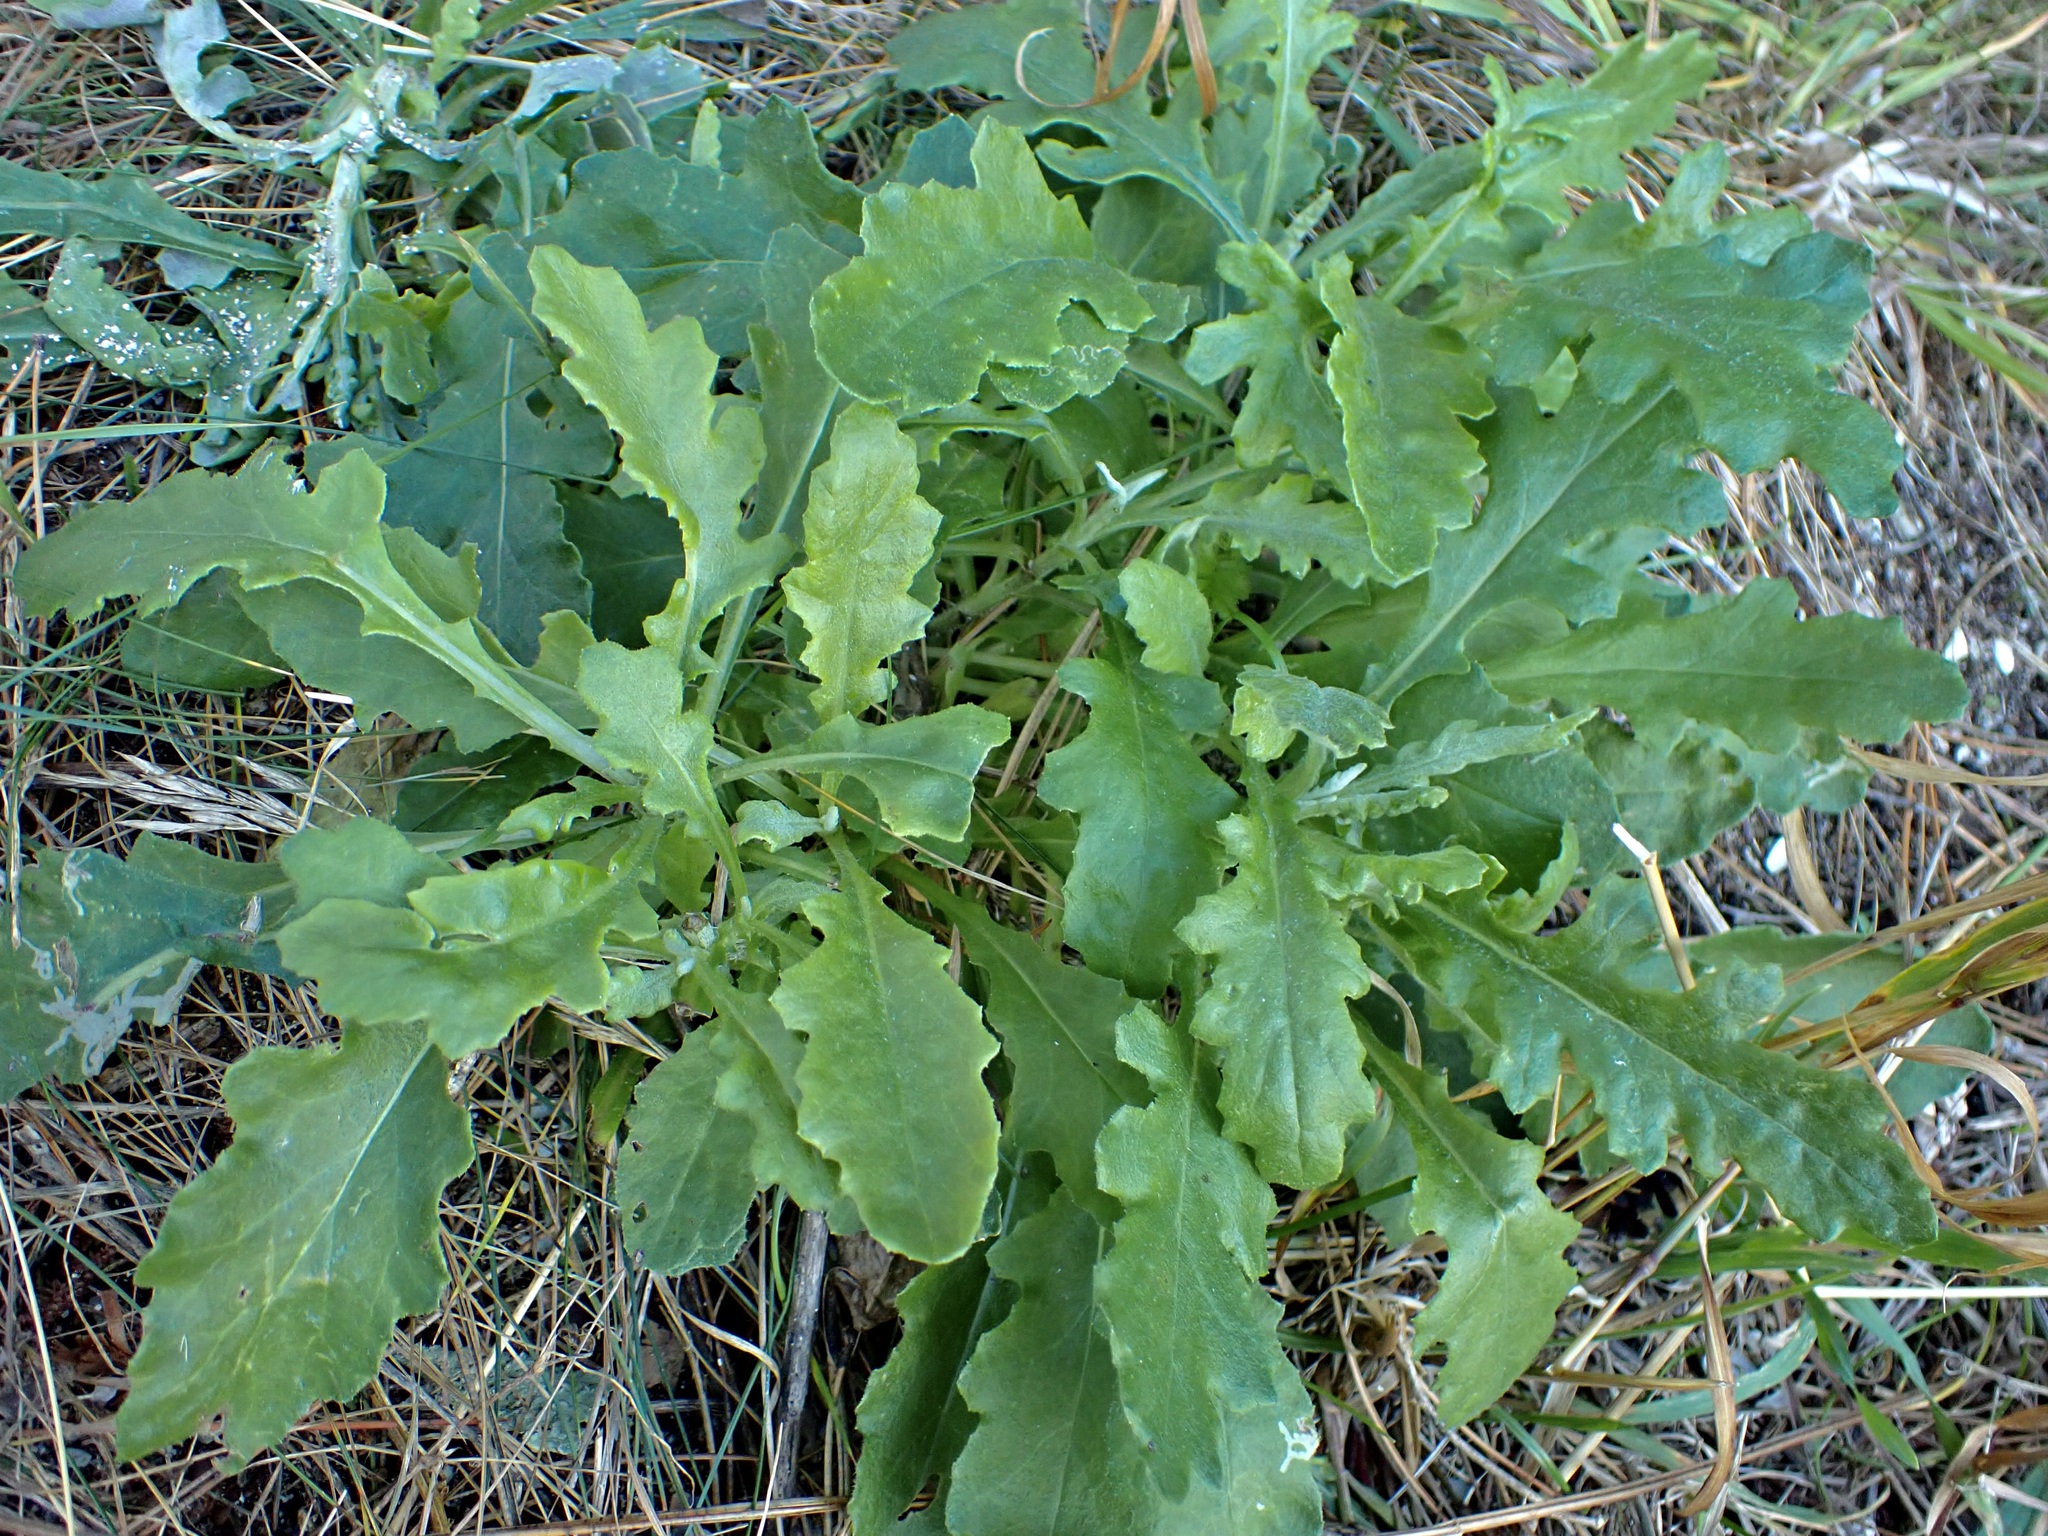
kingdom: Plantae
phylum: Tracheophyta
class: Magnoliopsida
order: Asterales
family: Asteraceae
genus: Senecio
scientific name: Senecio glomeratus
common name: Cutleaf burnweed
